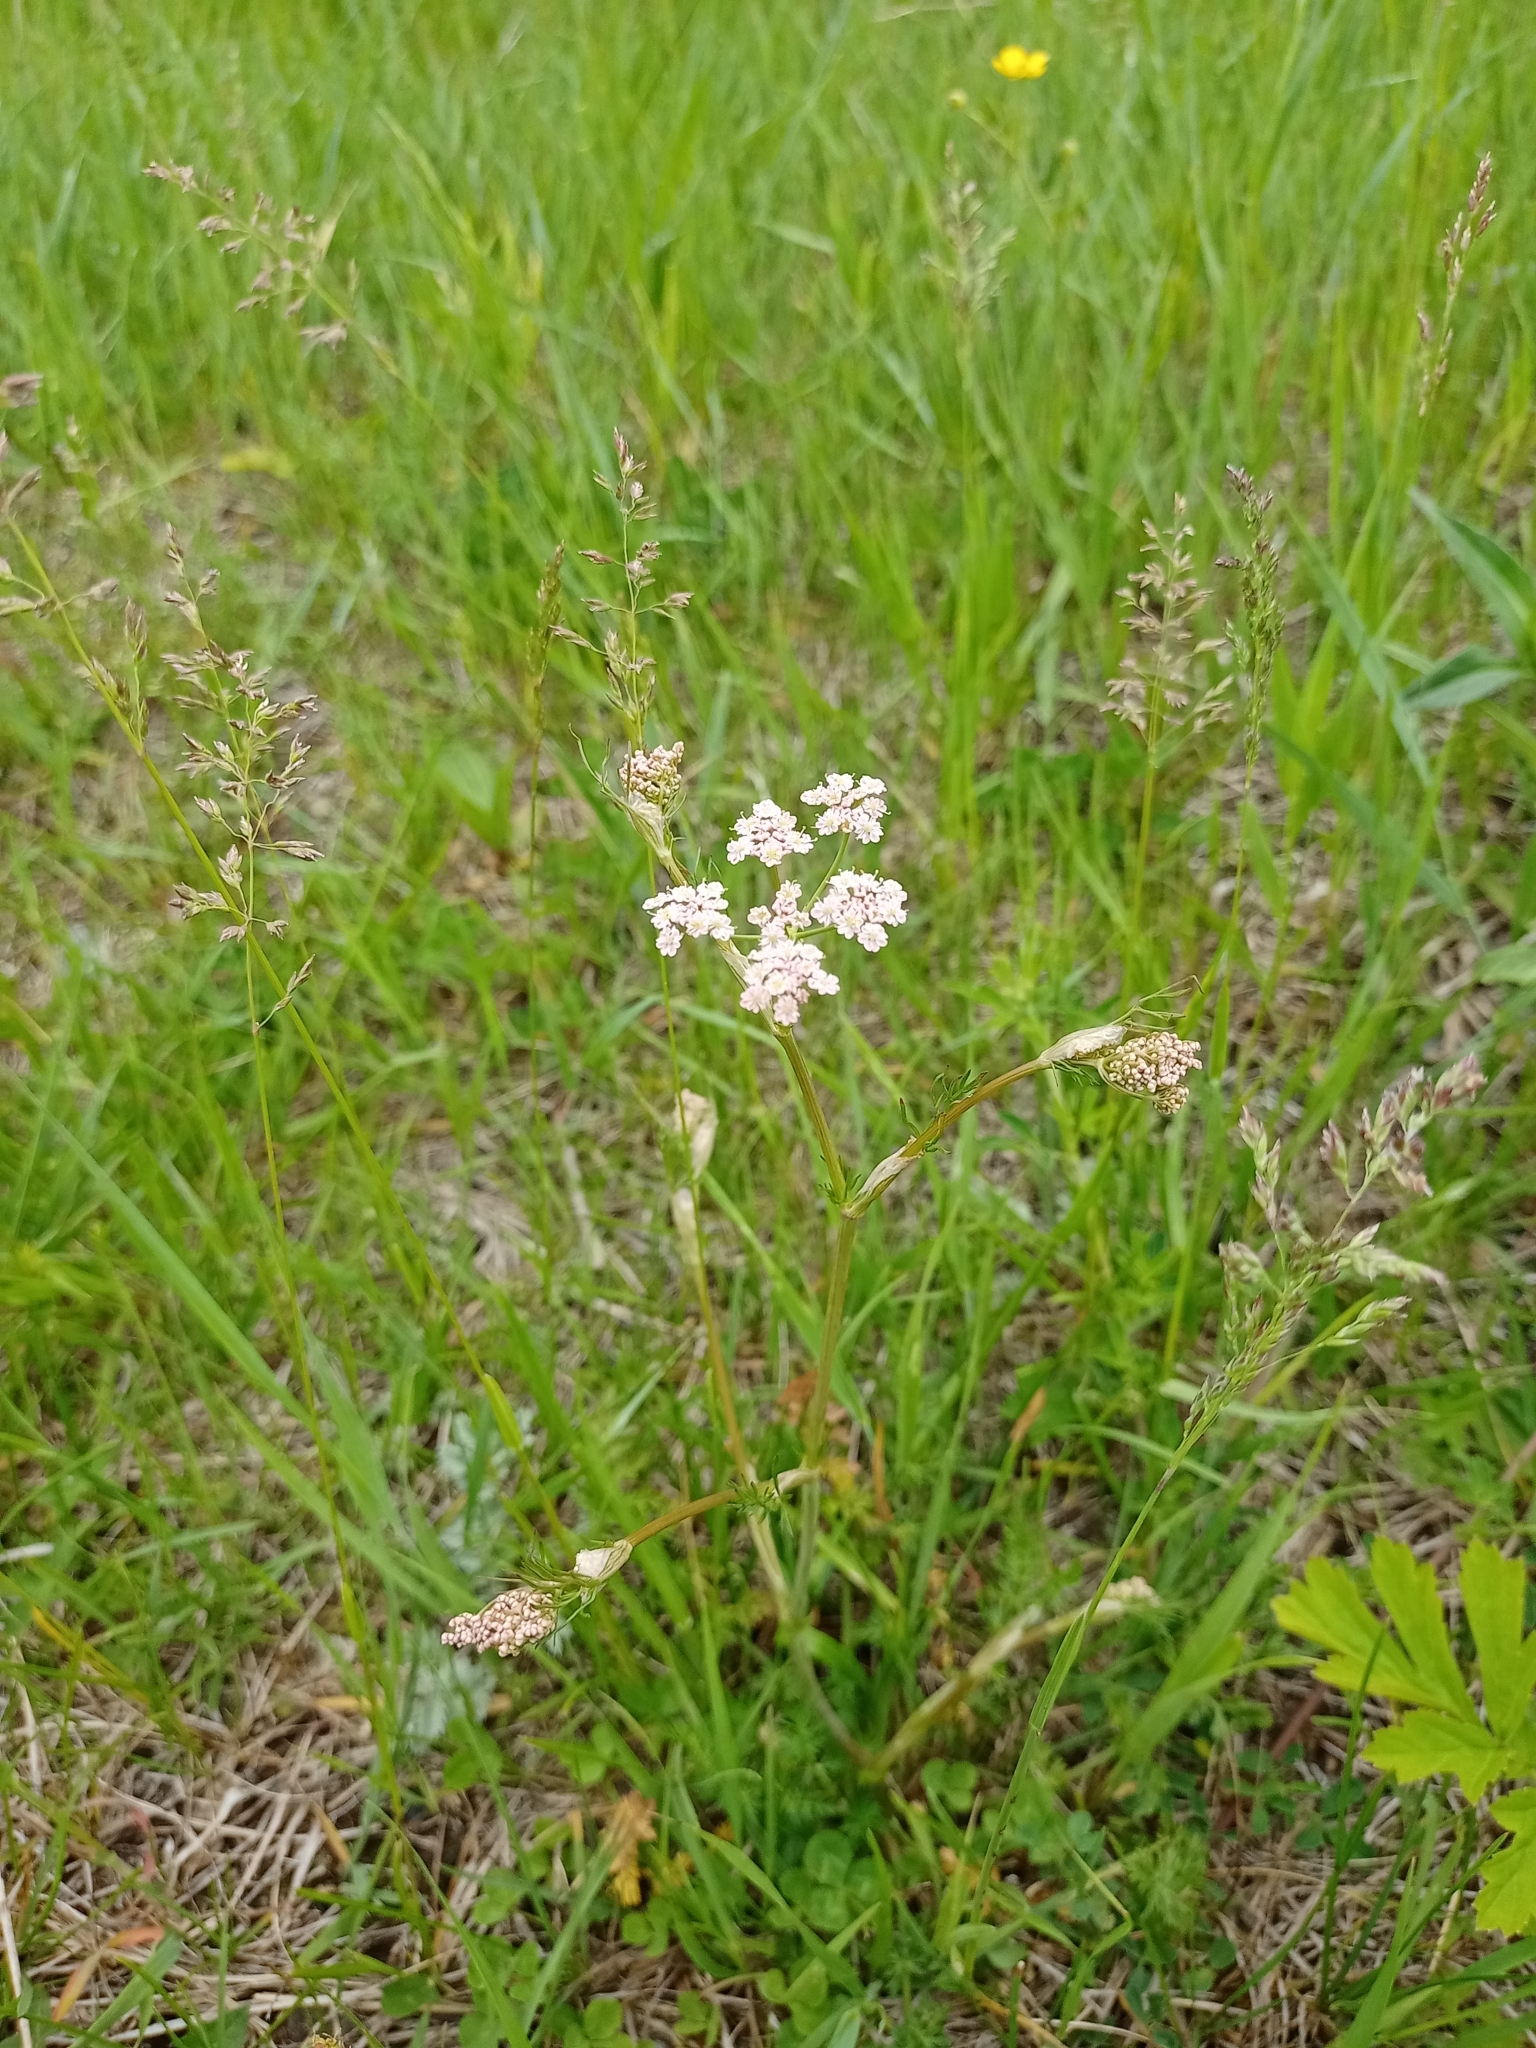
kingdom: Plantae
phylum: Tracheophyta
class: Magnoliopsida
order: Apiales
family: Apiaceae
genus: Carum
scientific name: Carum carvi
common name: Caraway
